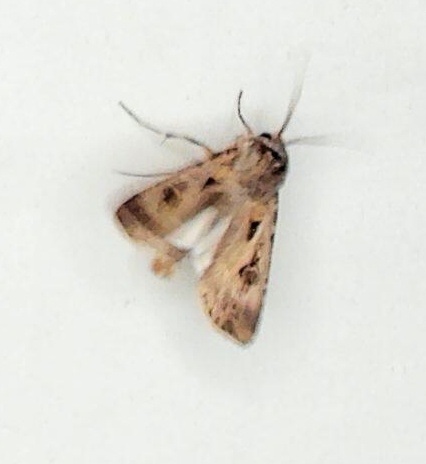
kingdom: Animalia
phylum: Arthropoda
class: Insecta
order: Lepidoptera
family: Noctuidae
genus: Agrotis
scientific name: Agrotis munda
